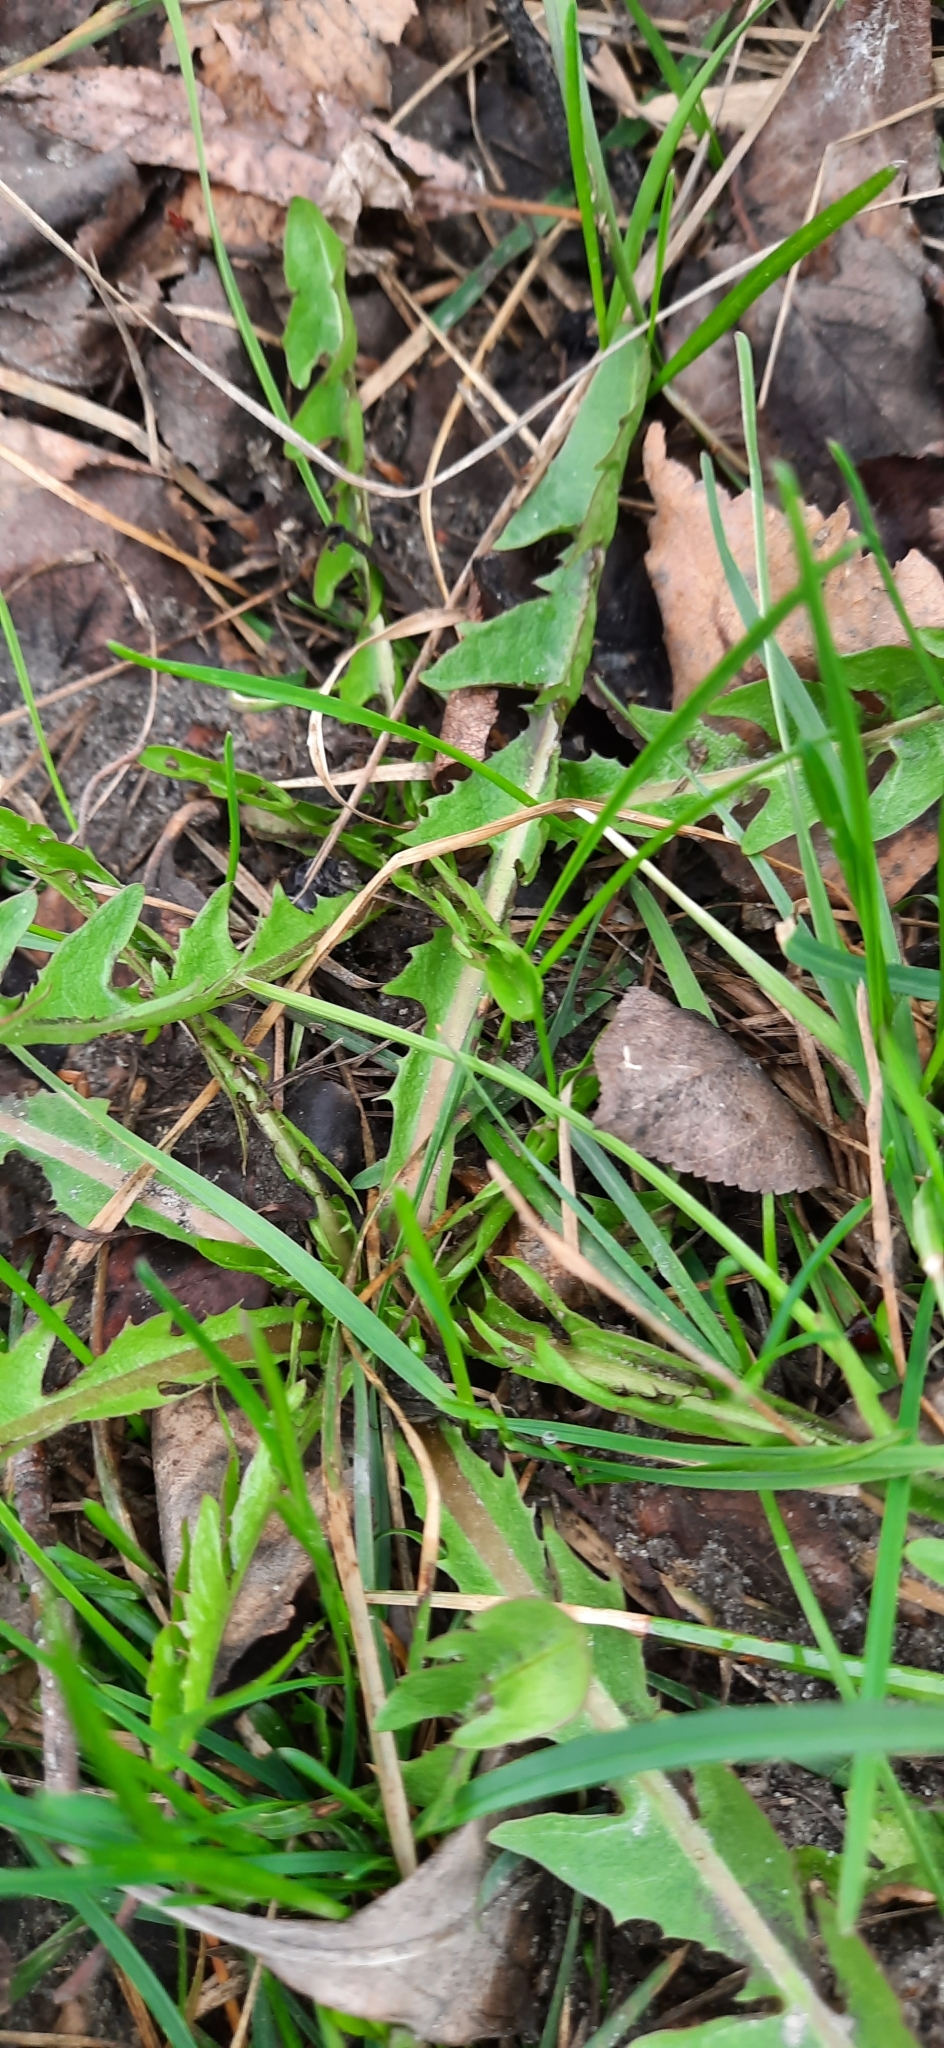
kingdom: Plantae
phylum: Tracheophyta
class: Magnoliopsida
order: Asterales
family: Asteraceae
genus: Taraxacum
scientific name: Taraxacum officinale
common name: Common dandelion
